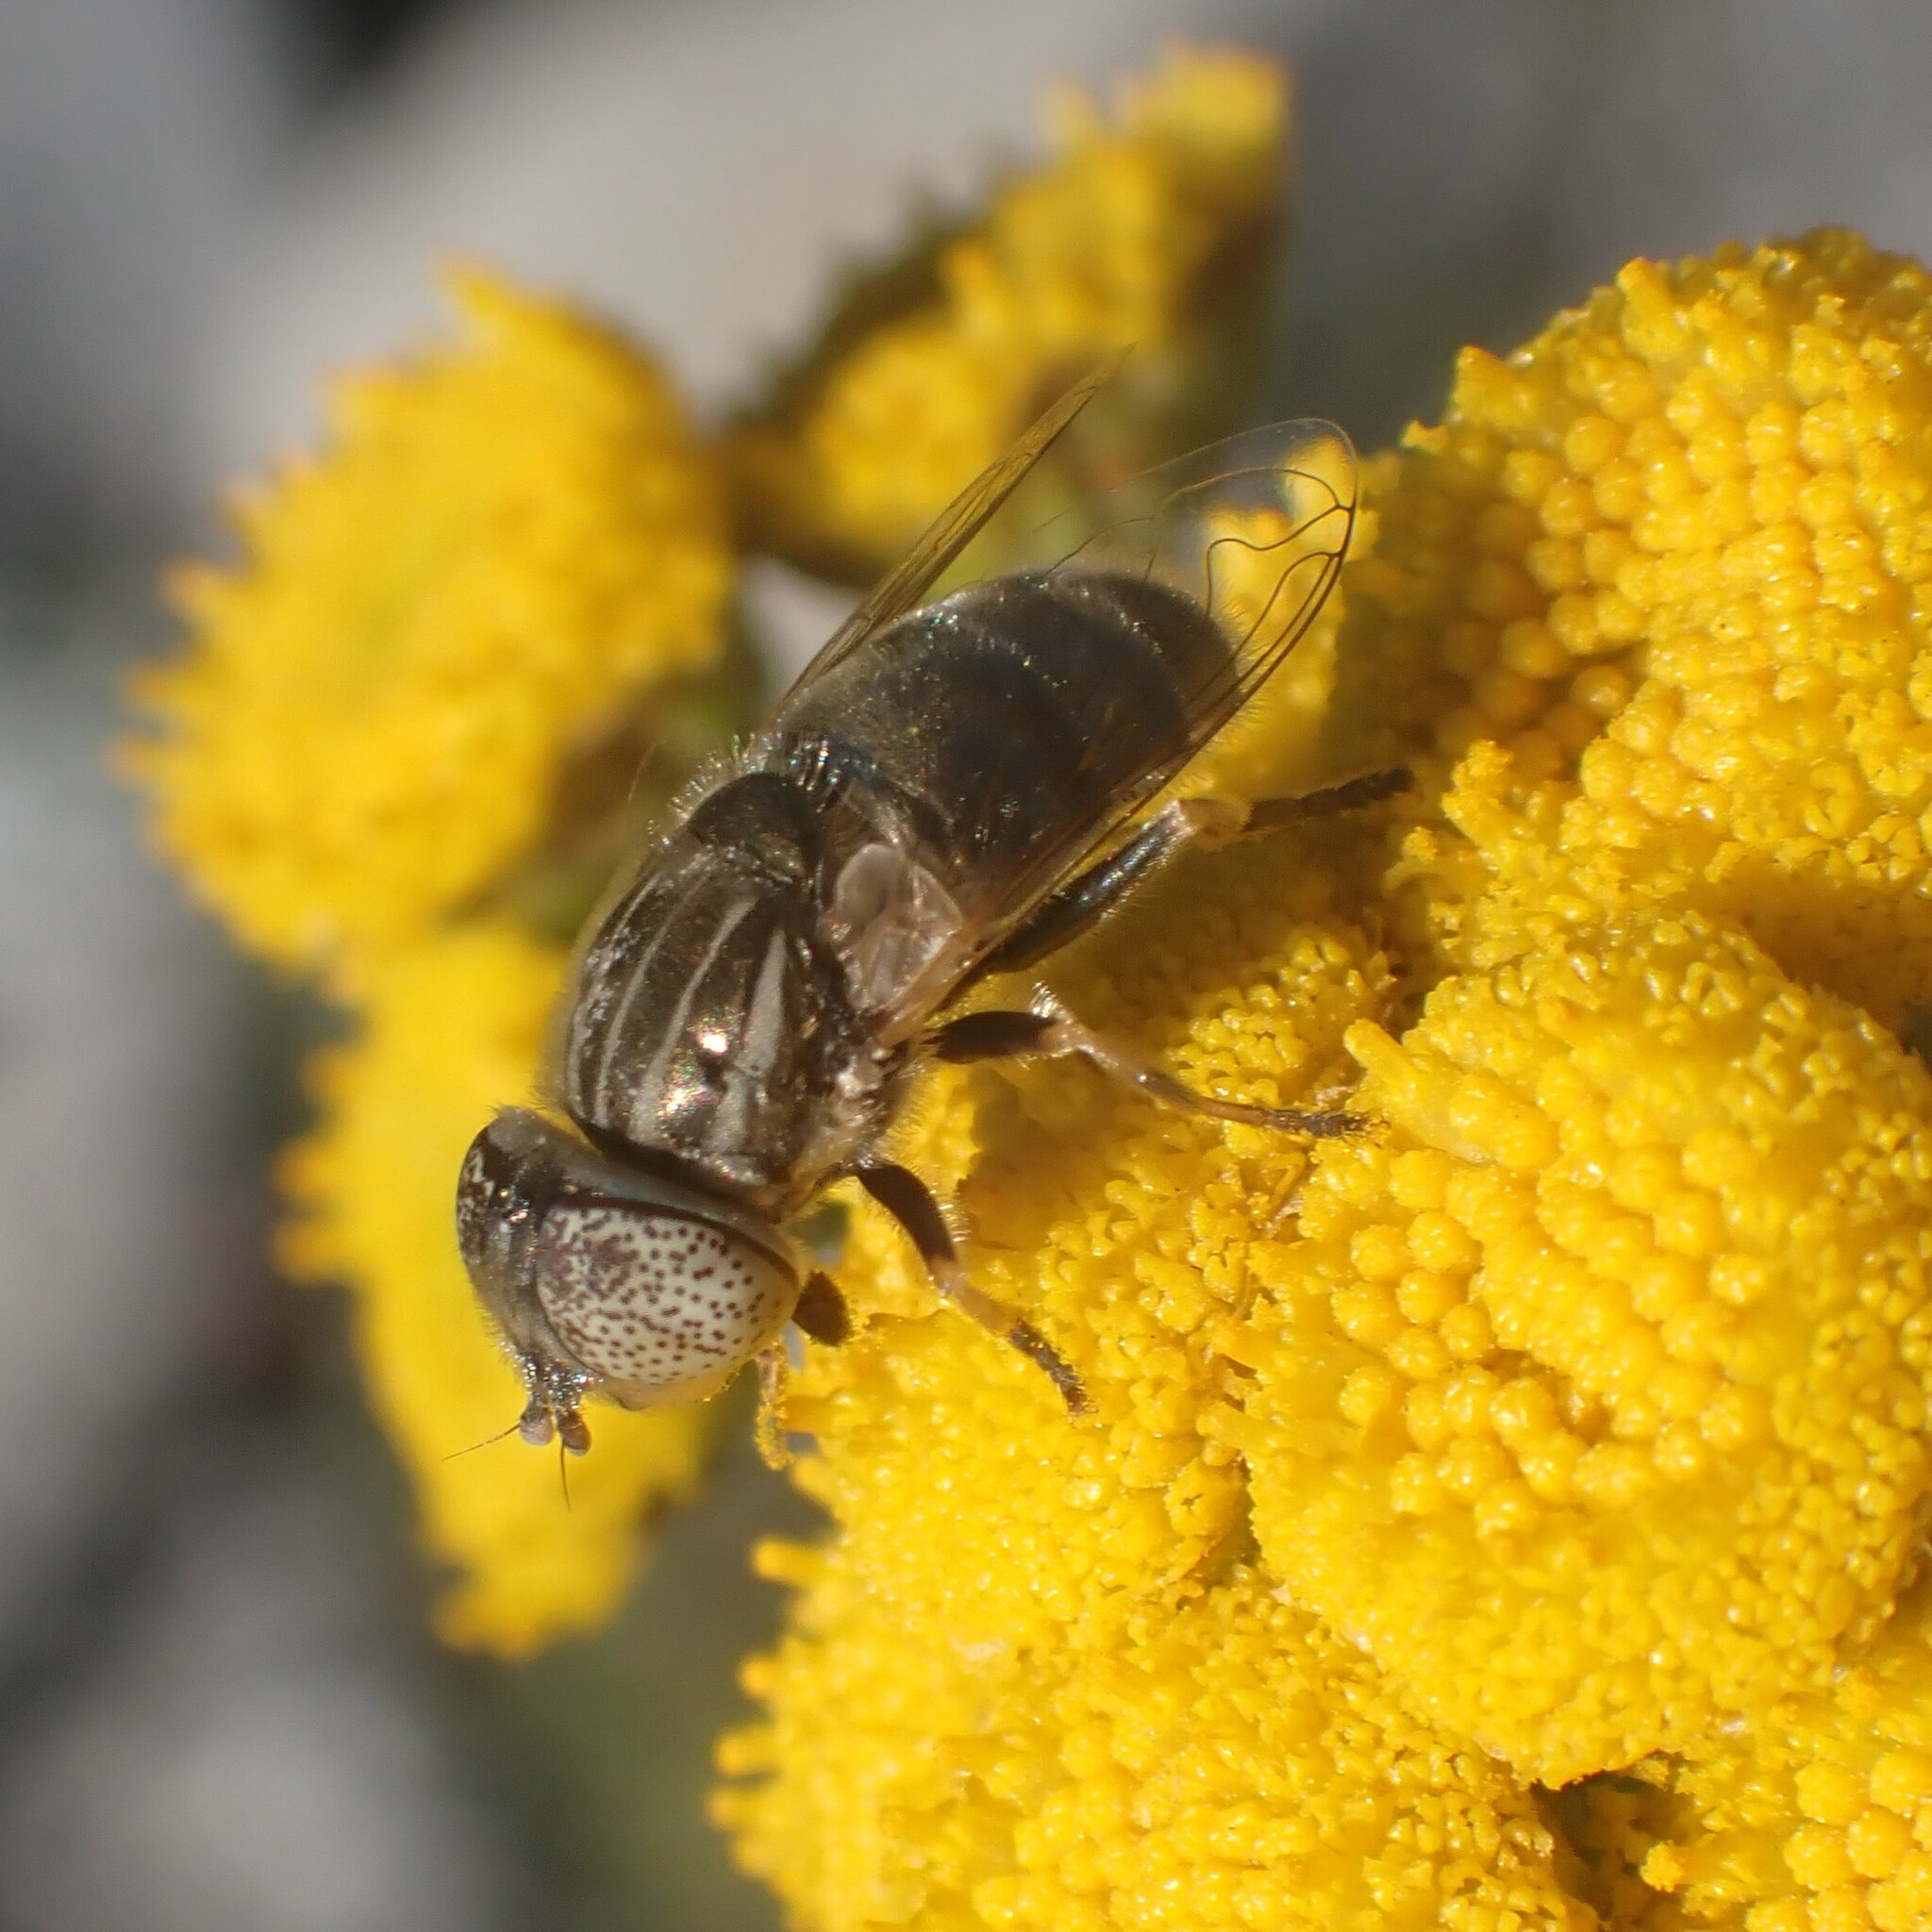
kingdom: Animalia
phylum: Arthropoda
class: Insecta
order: Diptera
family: Syrphidae
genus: Eristalinus
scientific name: Eristalinus aeneus
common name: Syrphid fly
